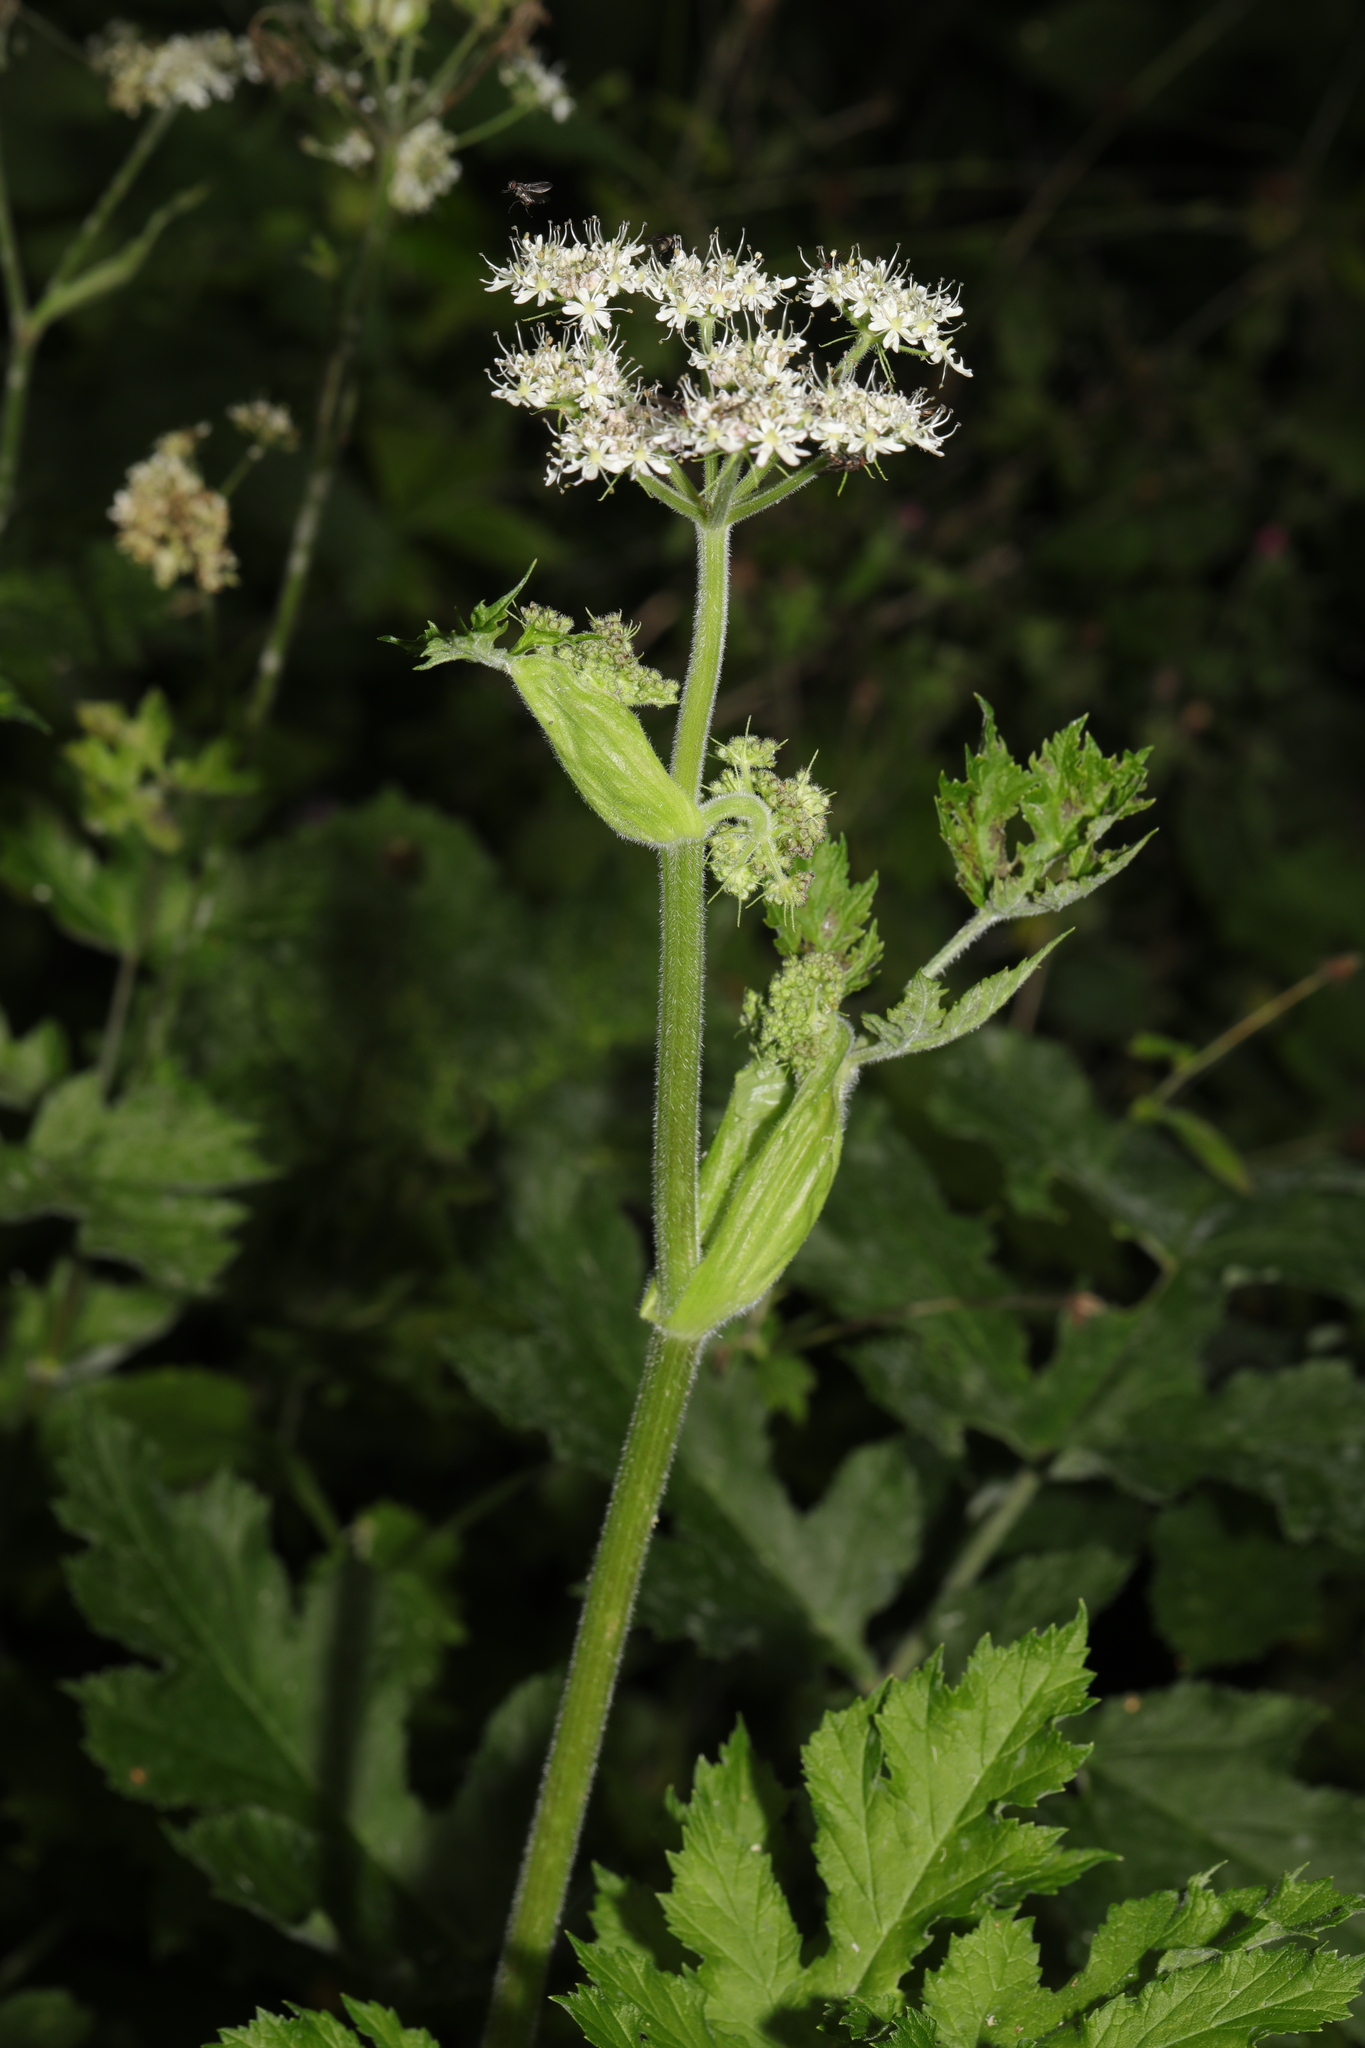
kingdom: Plantae
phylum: Tracheophyta
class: Magnoliopsida
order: Apiales
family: Apiaceae
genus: Heracleum
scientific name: Heracleum sphondylium
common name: Hogweed
